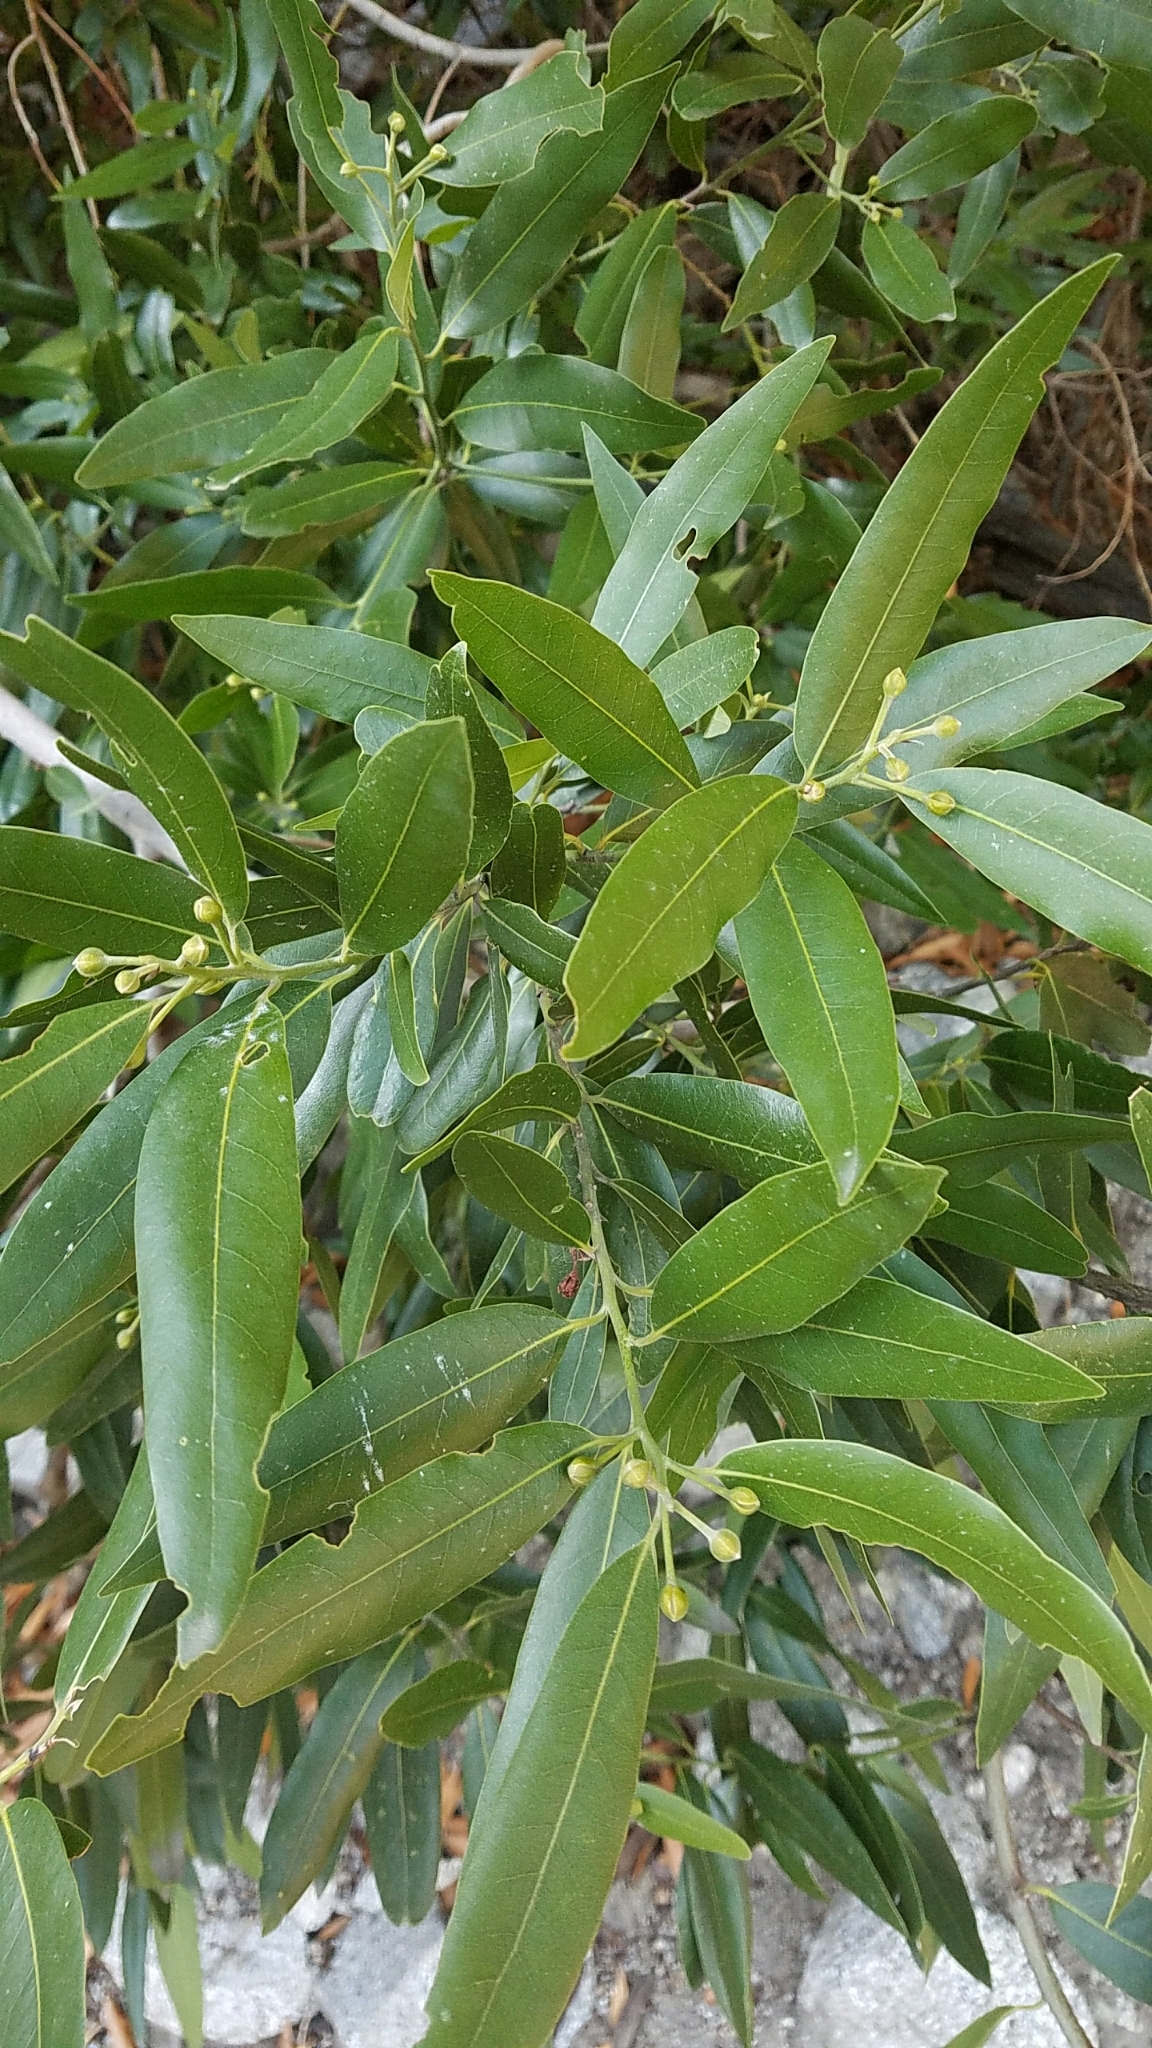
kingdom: Plantae
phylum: Tracheophyta
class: Magnoliopsida
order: Laurales
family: Lauraceae
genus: Umbellularia
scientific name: Umbellularia californica
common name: California bay
